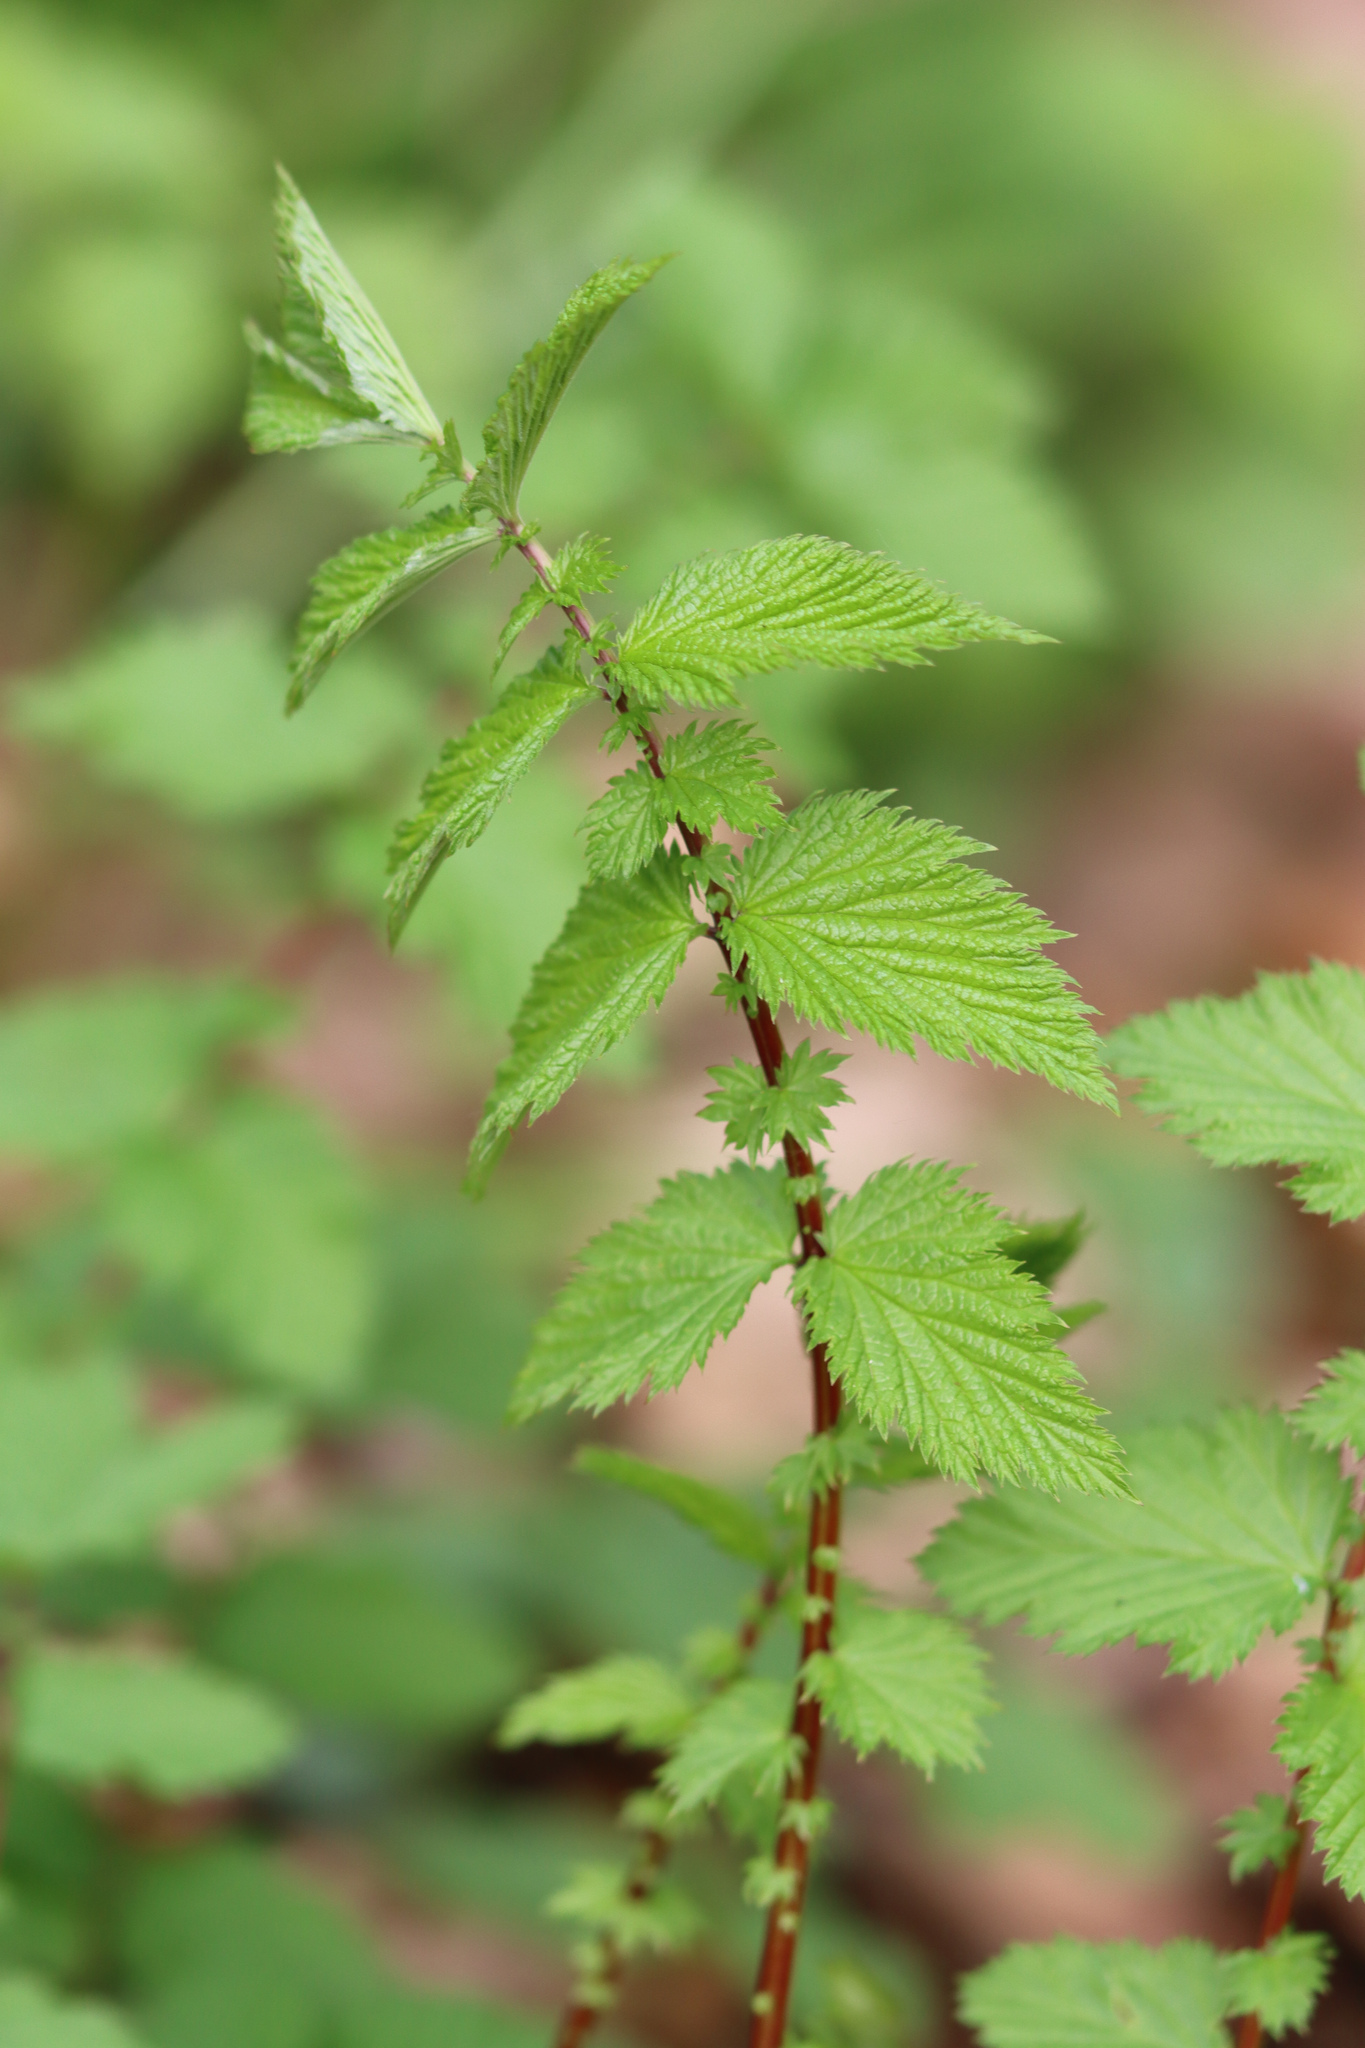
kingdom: Plantae
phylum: Tracheophyta
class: Magnoliopsida
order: Rosales
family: Rosaceae
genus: Filipendula
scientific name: Filipendula ulmaria
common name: Meadowsweet
